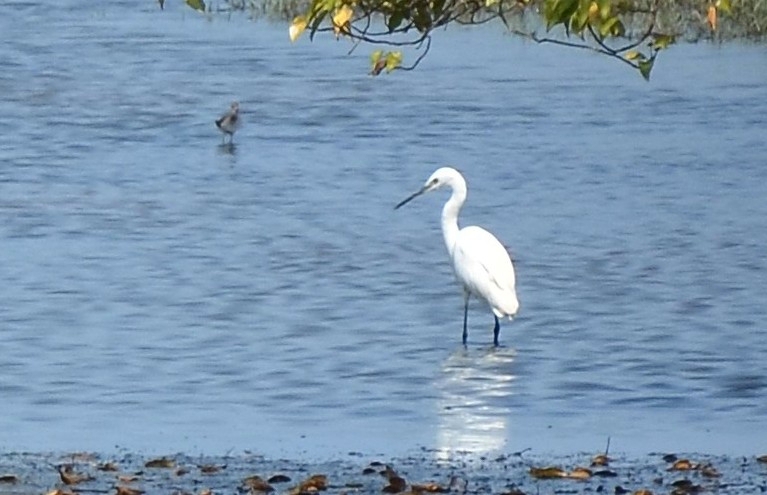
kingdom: Animalia
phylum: Chordata
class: Aves
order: Pelecaniformes
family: Ardeidae
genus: Egretta
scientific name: Egretta garzetta
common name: Little egret
